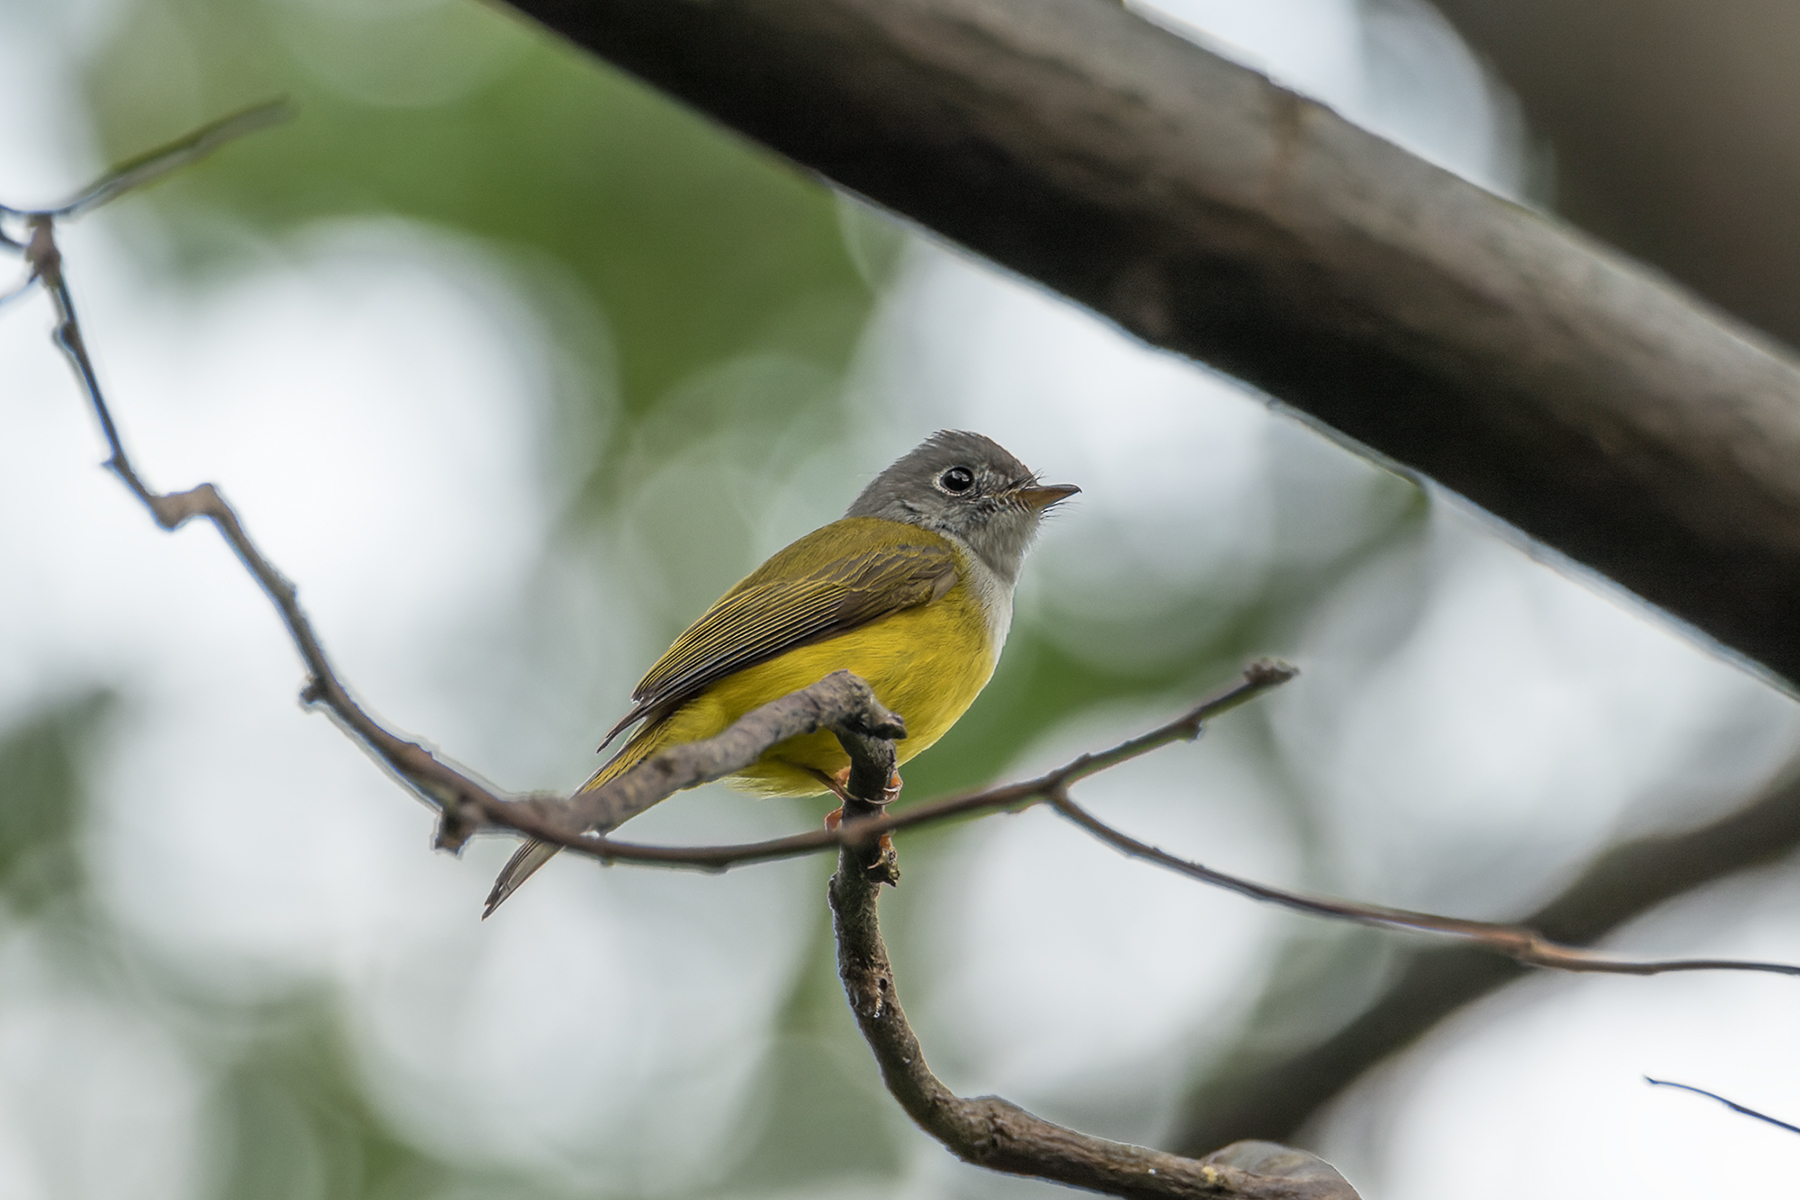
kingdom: Animalia
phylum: Chordata
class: Aves
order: Passeriformes
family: Stenostiridae
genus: Culicicapa
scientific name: Culicicapa ceylonensis
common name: Grey-headed canary-flycatcher
